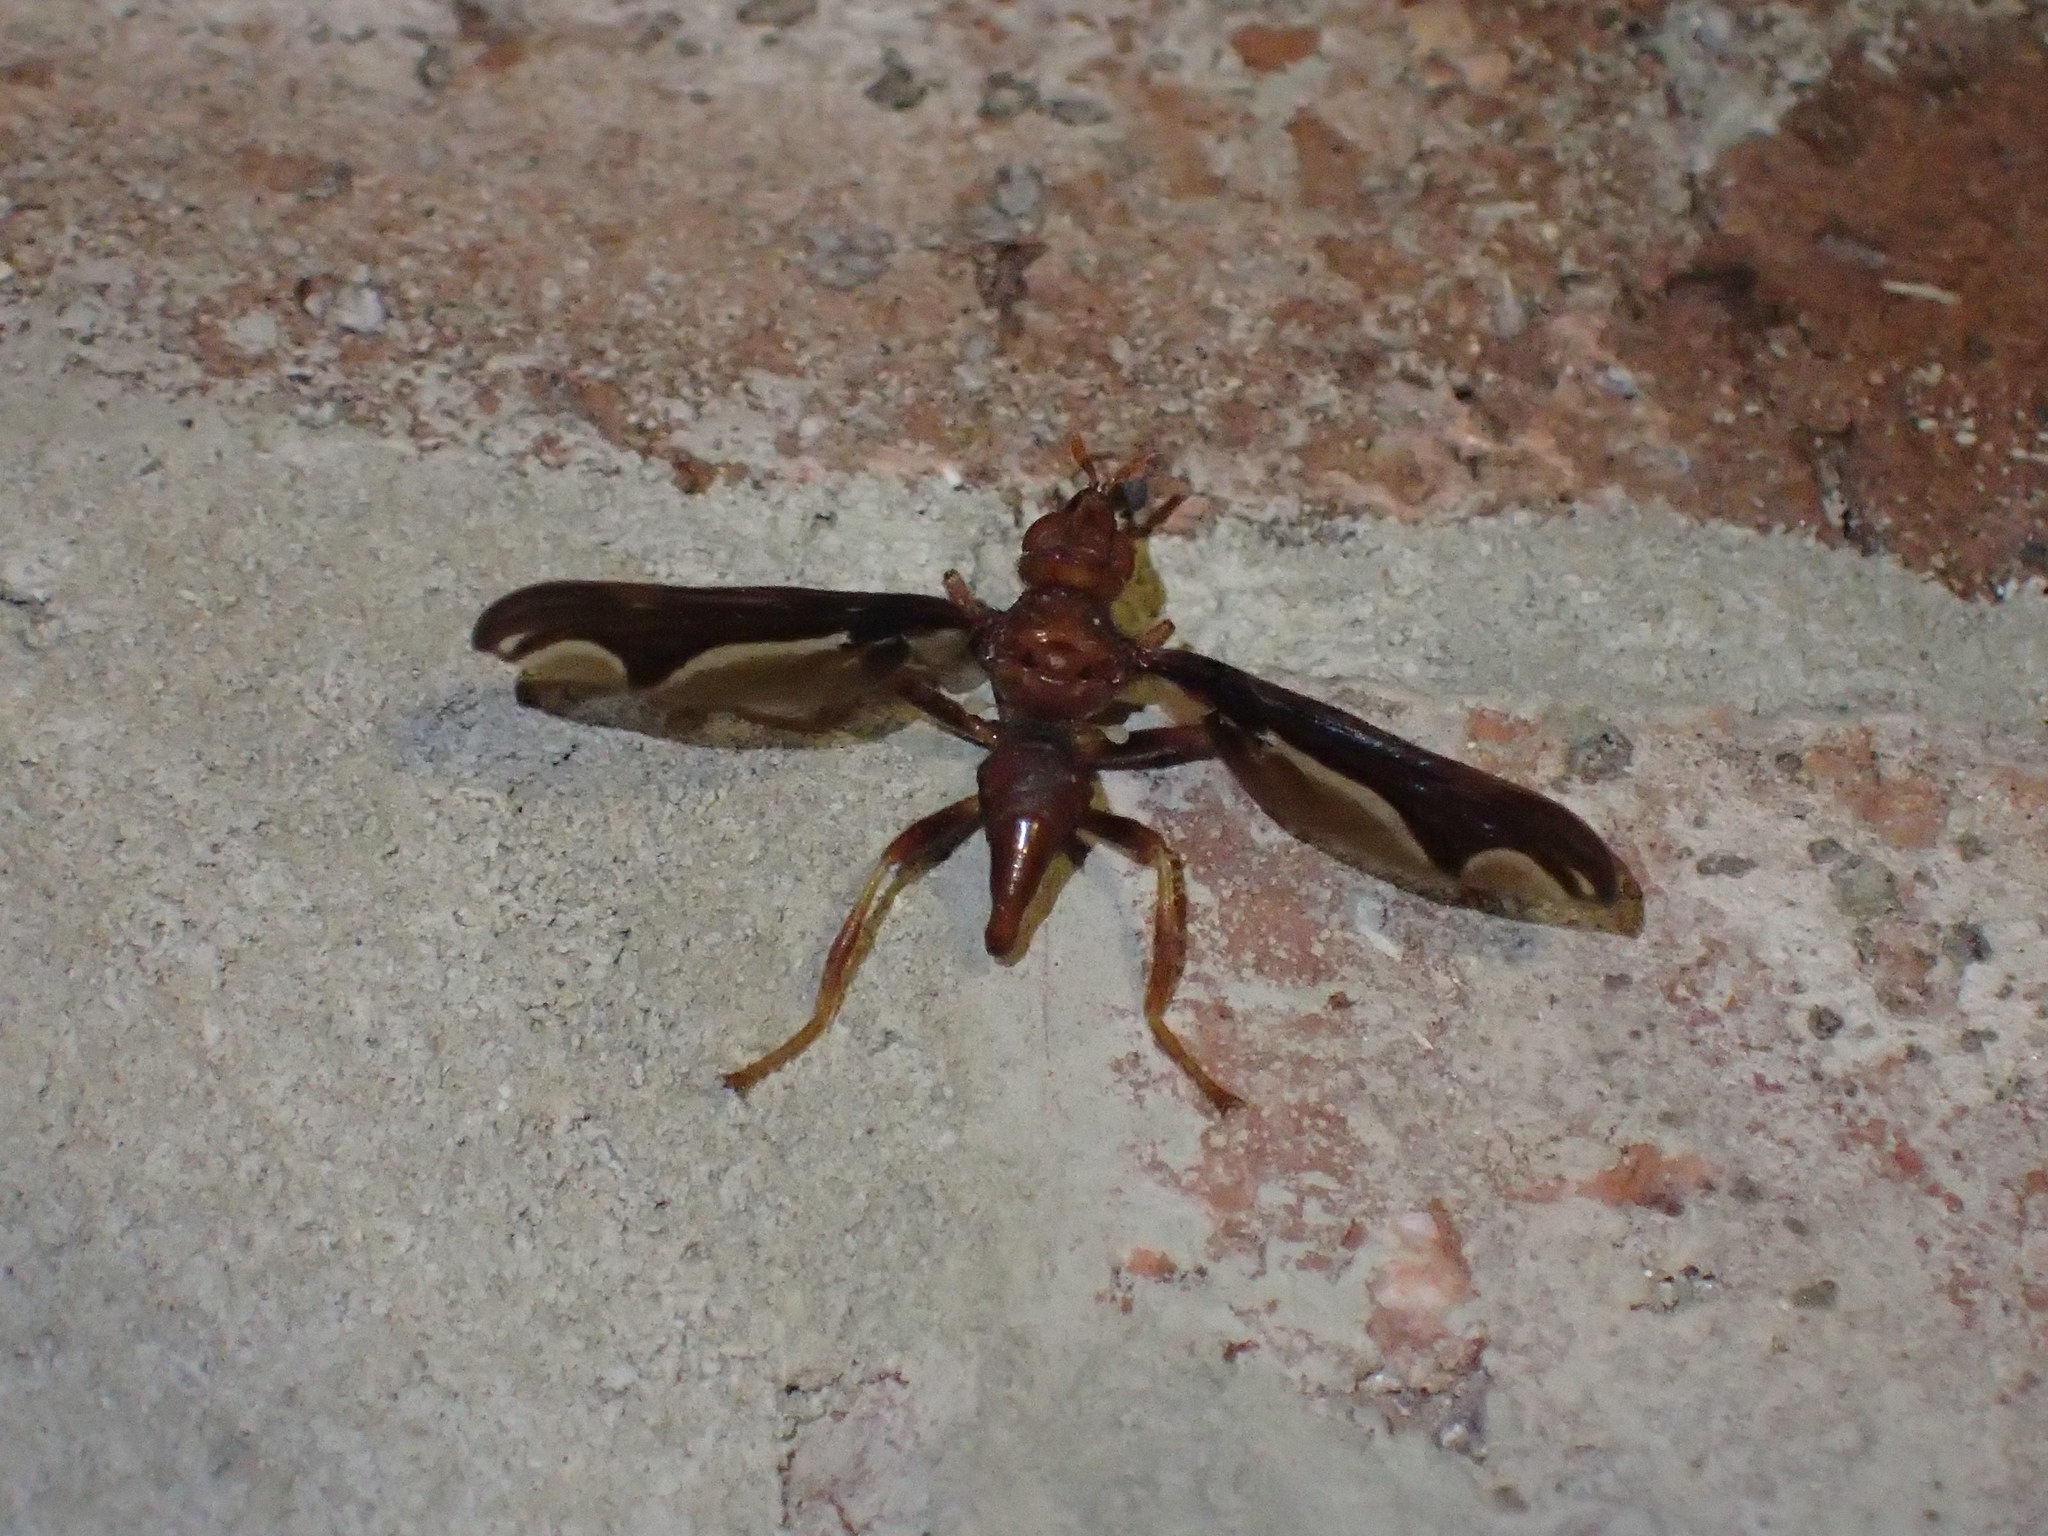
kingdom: Animalia
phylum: Arthropoda
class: Insecta
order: Diptera
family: Pyrgotidae
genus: Pyrgota
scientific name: Pyrgota undata
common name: Waved light fly
